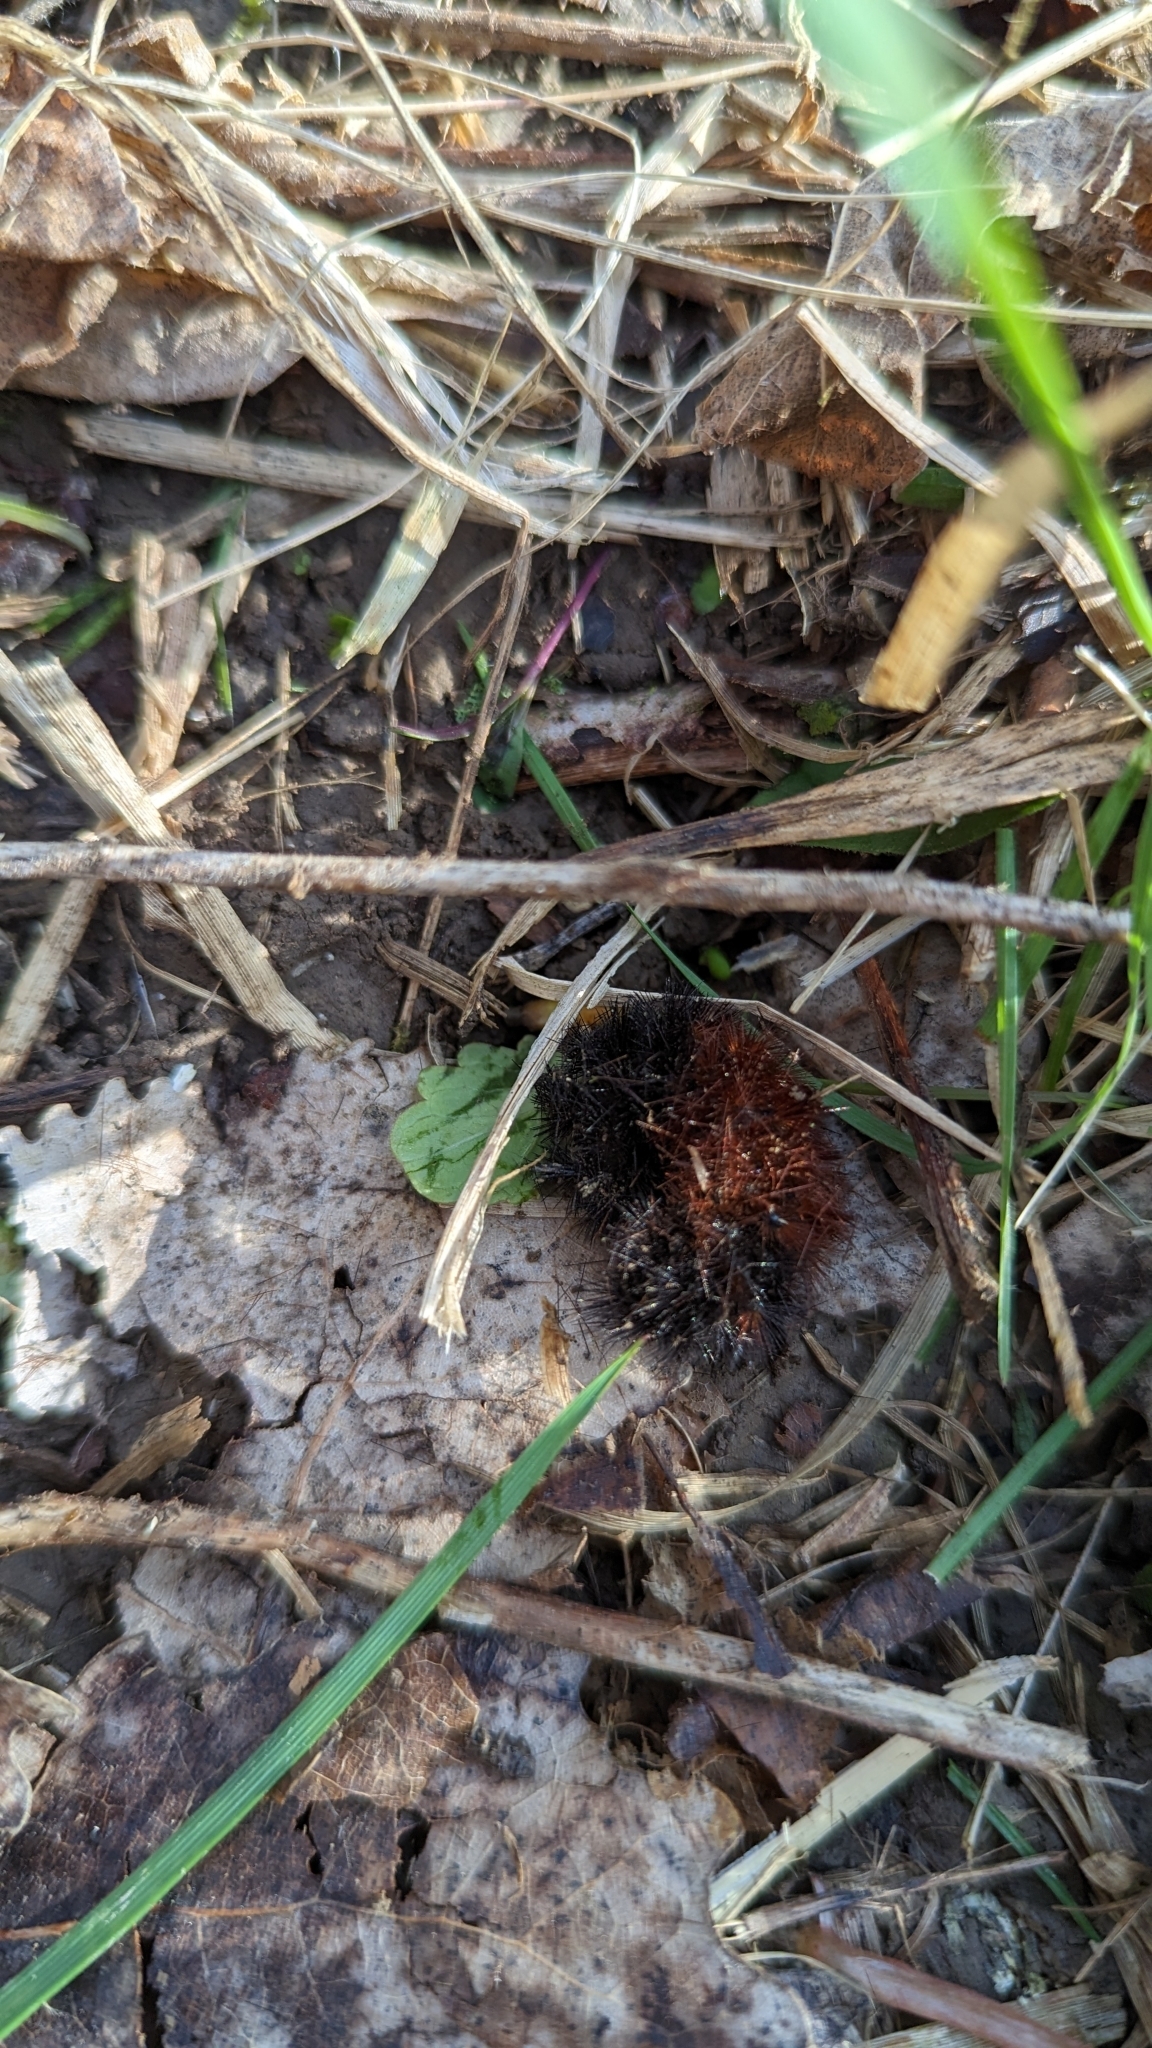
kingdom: Animalia
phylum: Arthropoda
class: Insecta
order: Lepidoptera
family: Erebidae
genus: Pyrrharctia
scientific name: Pyrrharctia isabella
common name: Isabella tiger moth
